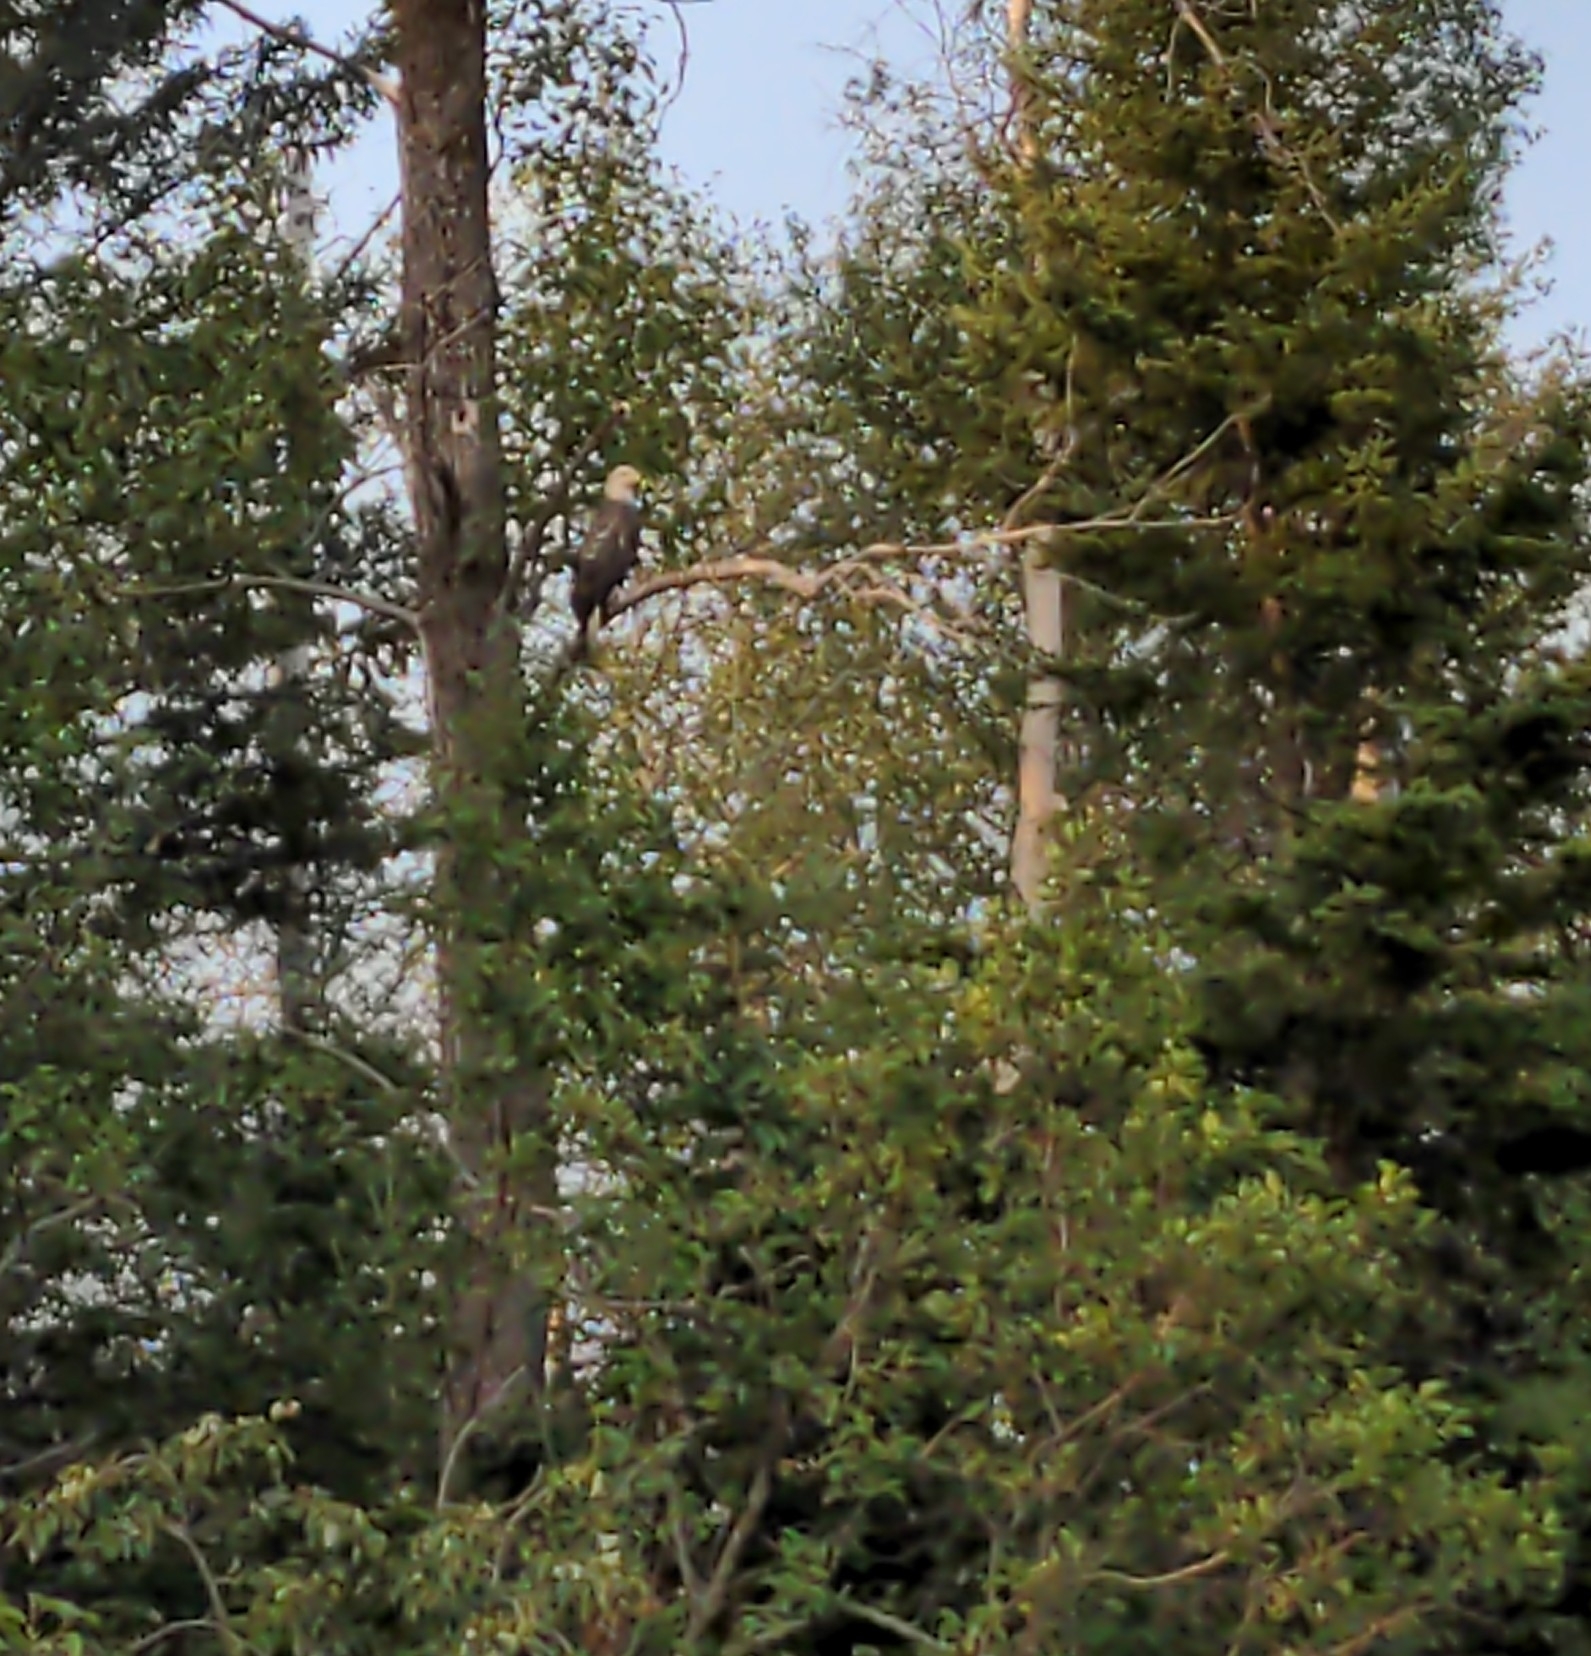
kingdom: Animalia
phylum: Chordata
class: Aves
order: Accipitriformes
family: Accipitridae
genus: Haliaeetus
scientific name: Haliaeetus leucocephalus
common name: Bald eagle
